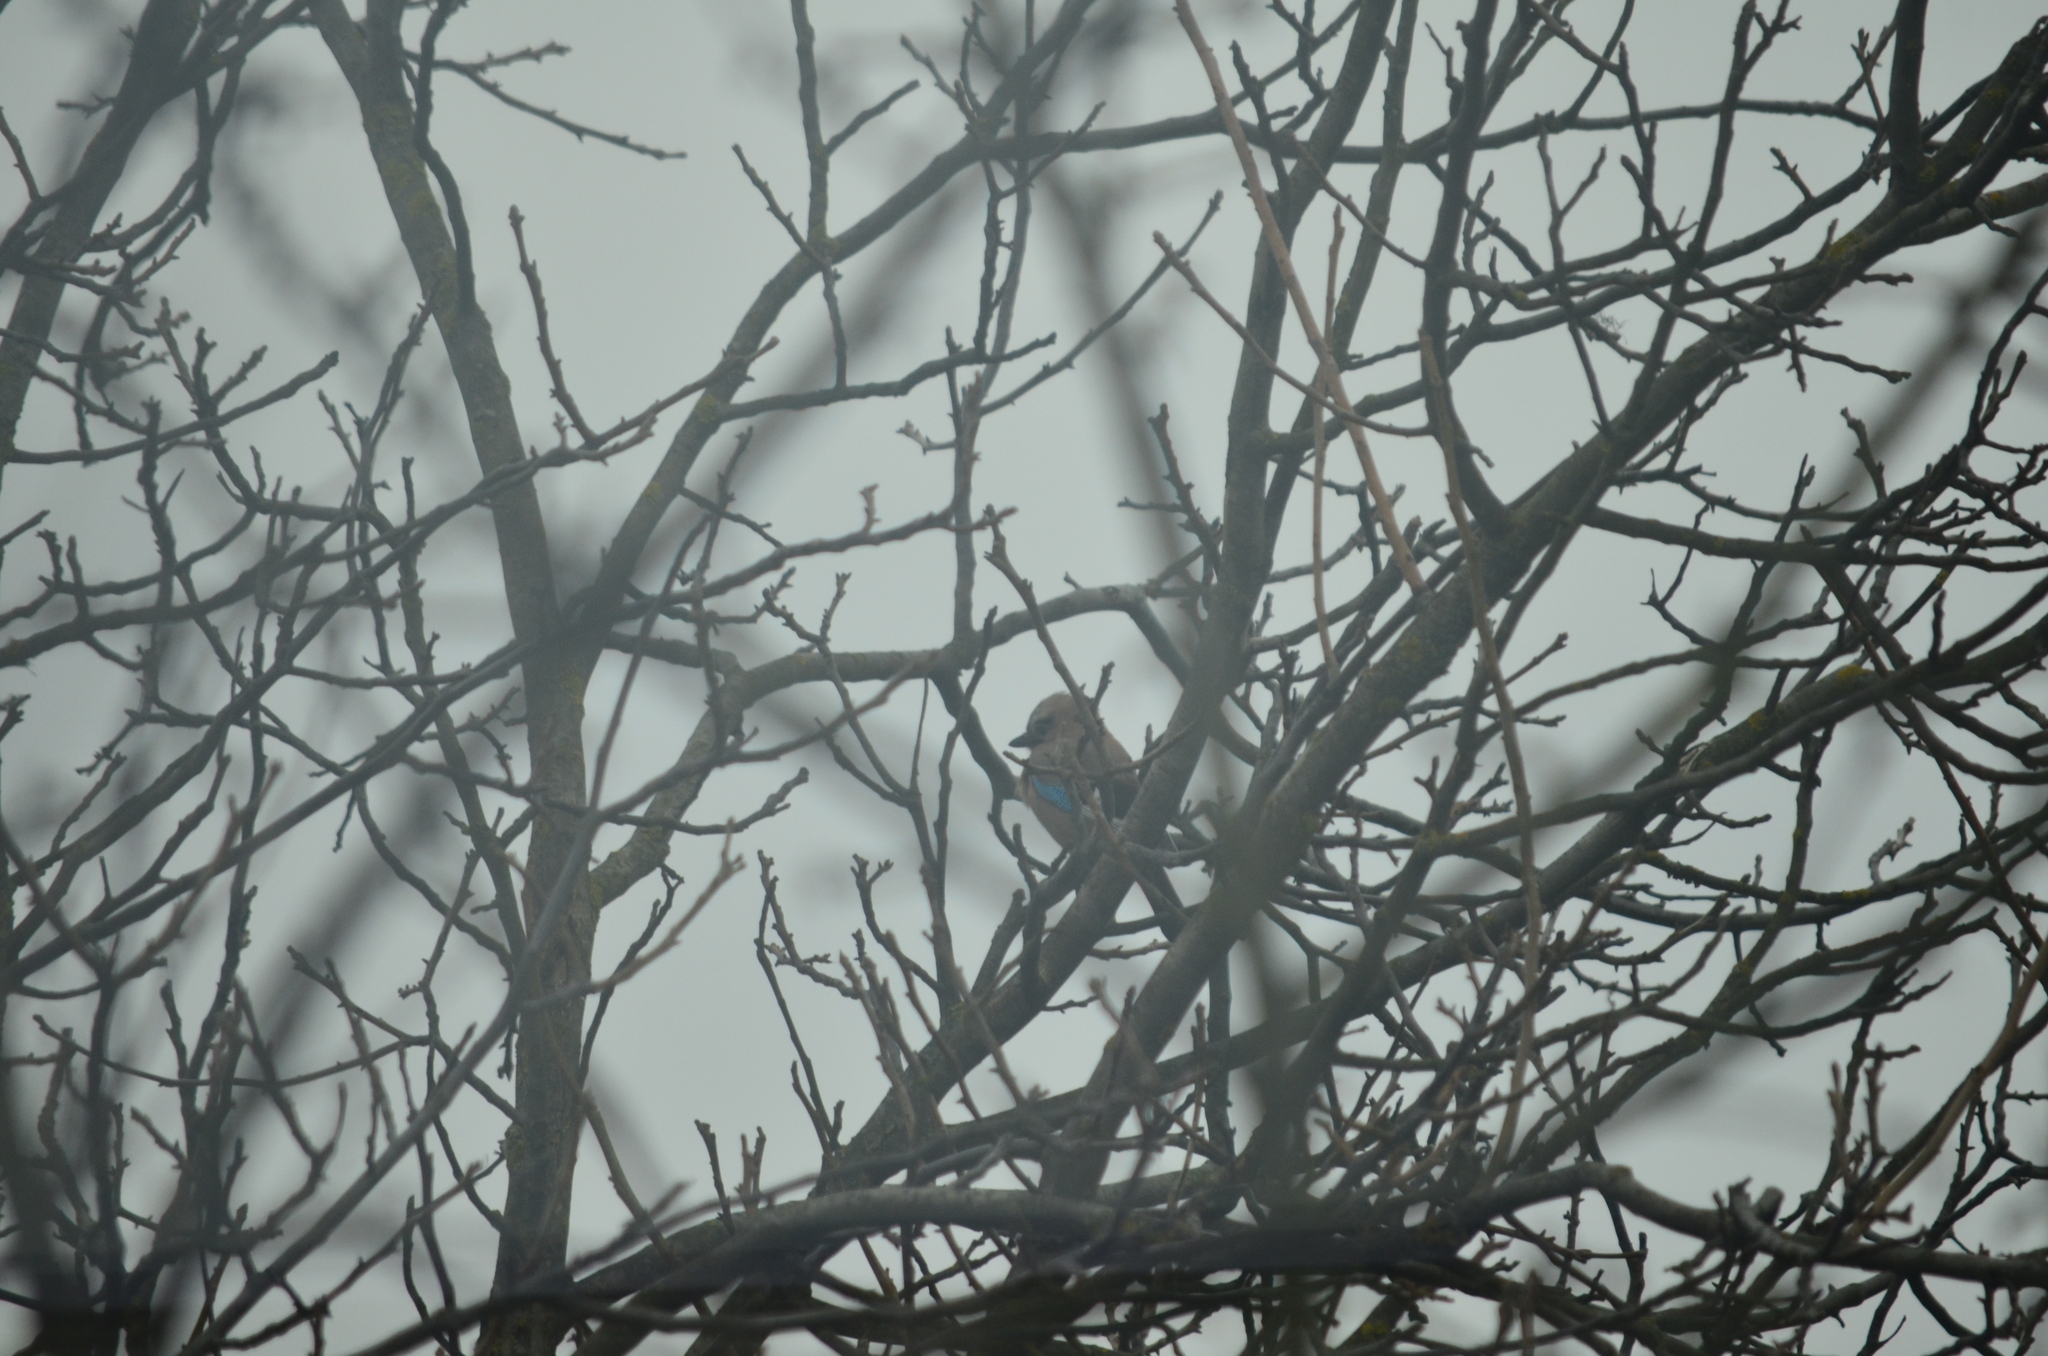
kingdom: Animalia
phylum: Chordata
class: Aves
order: Passeriformes
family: Corvidae
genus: Garrulus
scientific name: Garrulus glandarius
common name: Eurasian jay
